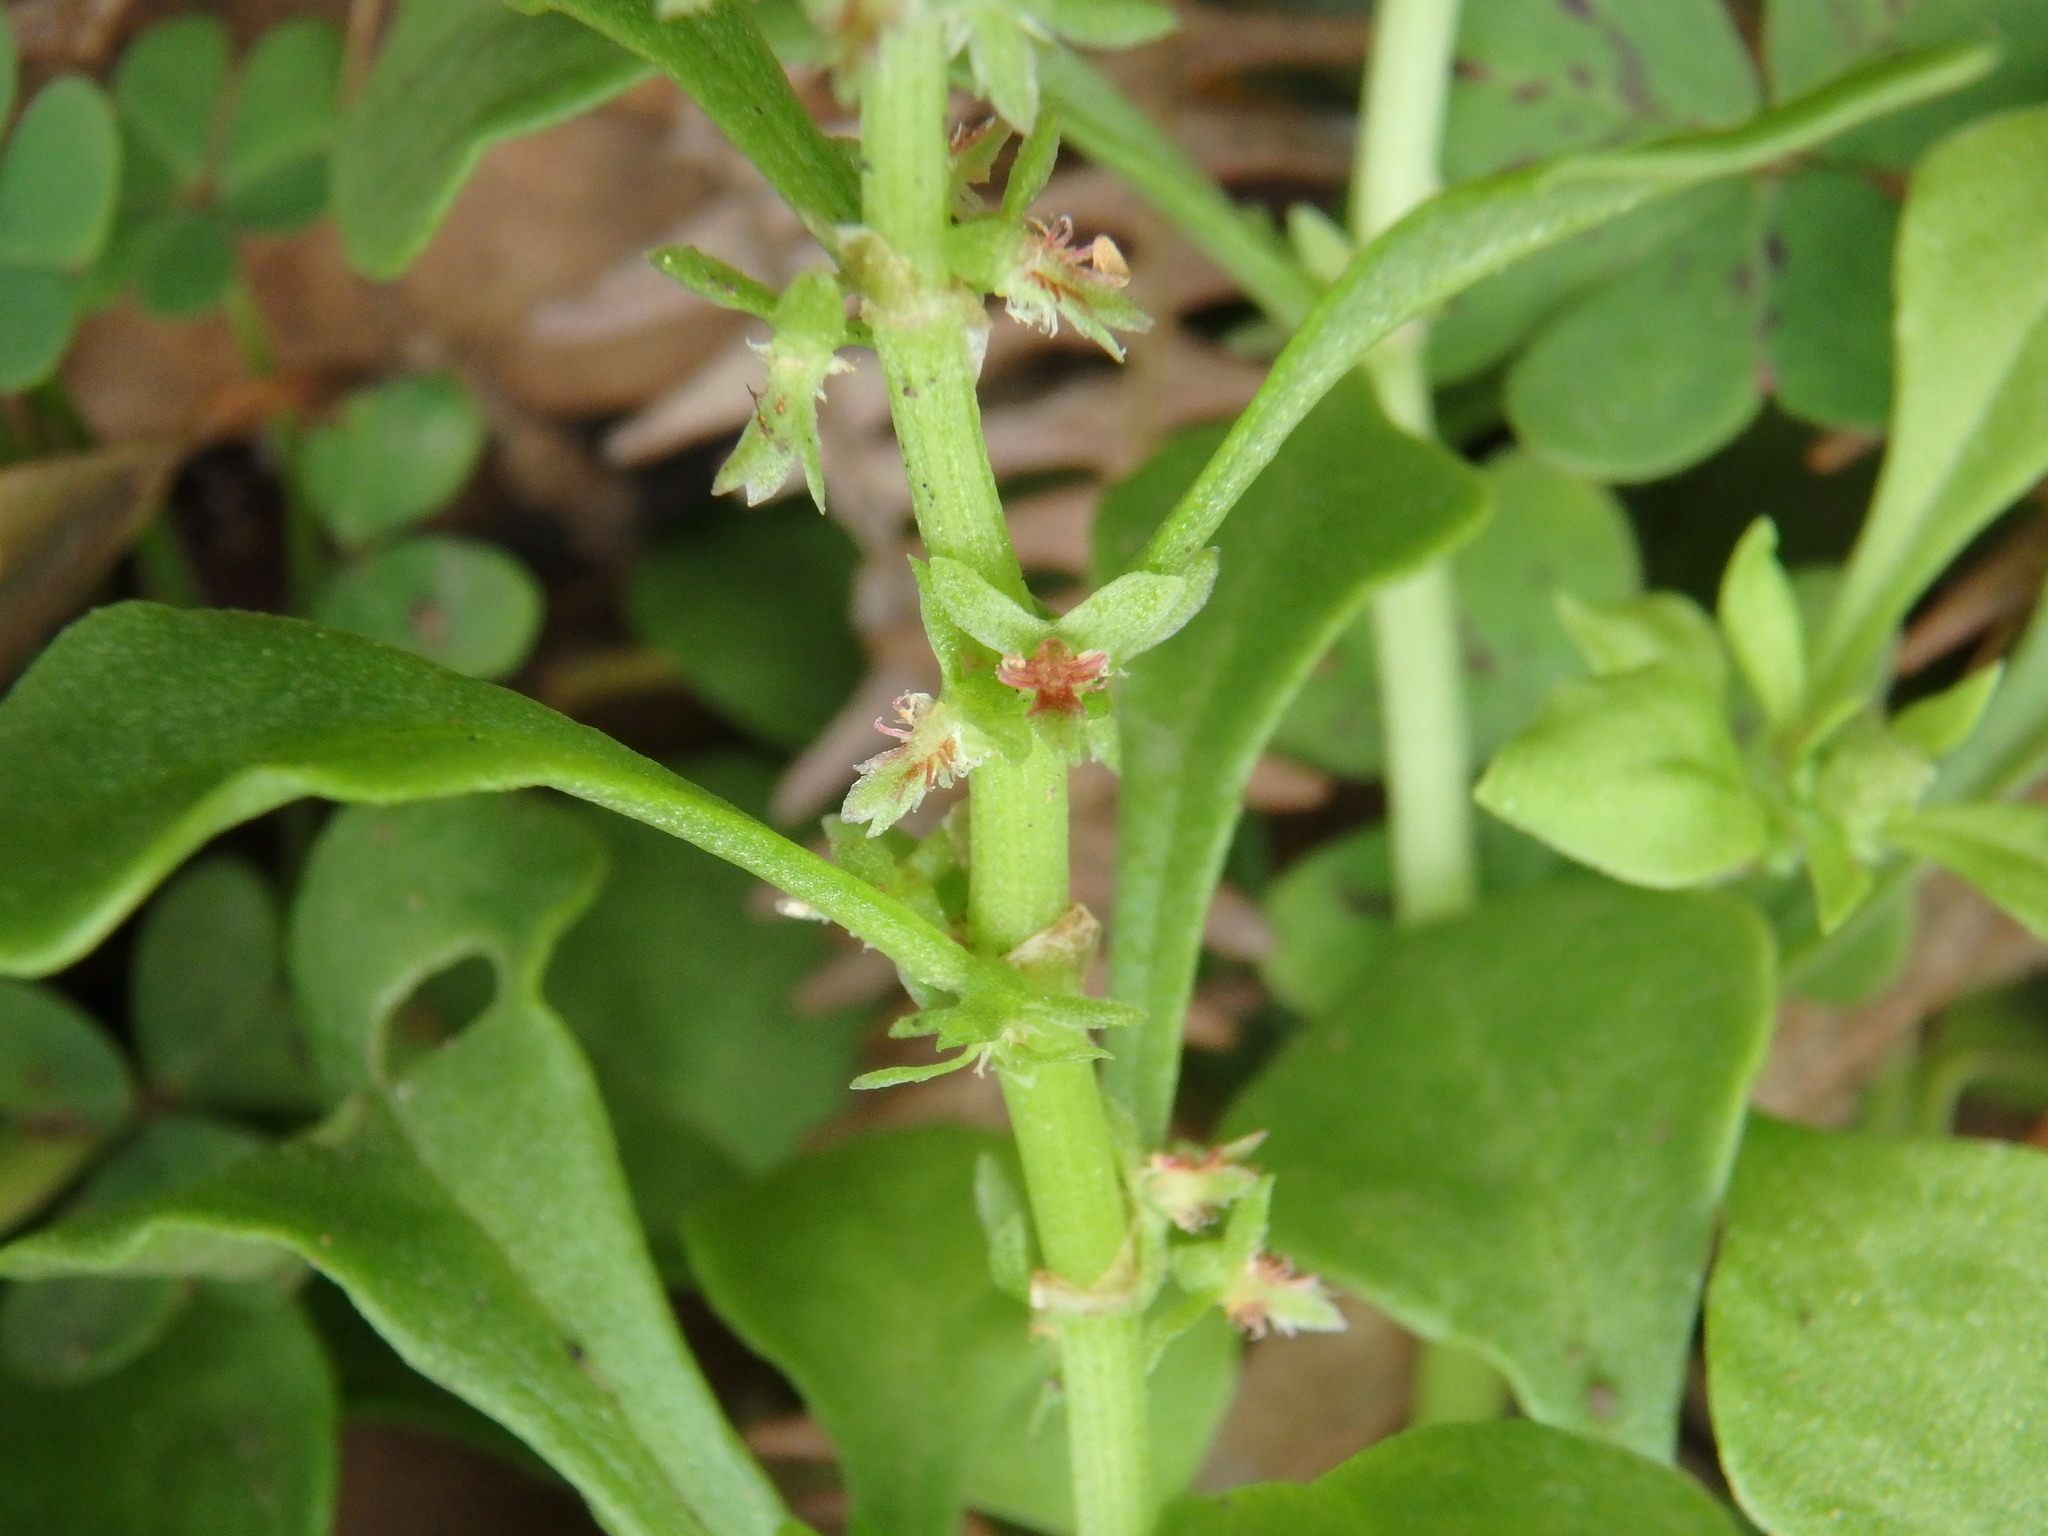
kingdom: Plantae
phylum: Tracheophyta
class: Magnoliopsida
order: Caryophyllales
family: Polygonaceae
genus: Rumex
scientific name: Rumex bucephalophorus
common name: Red dock
